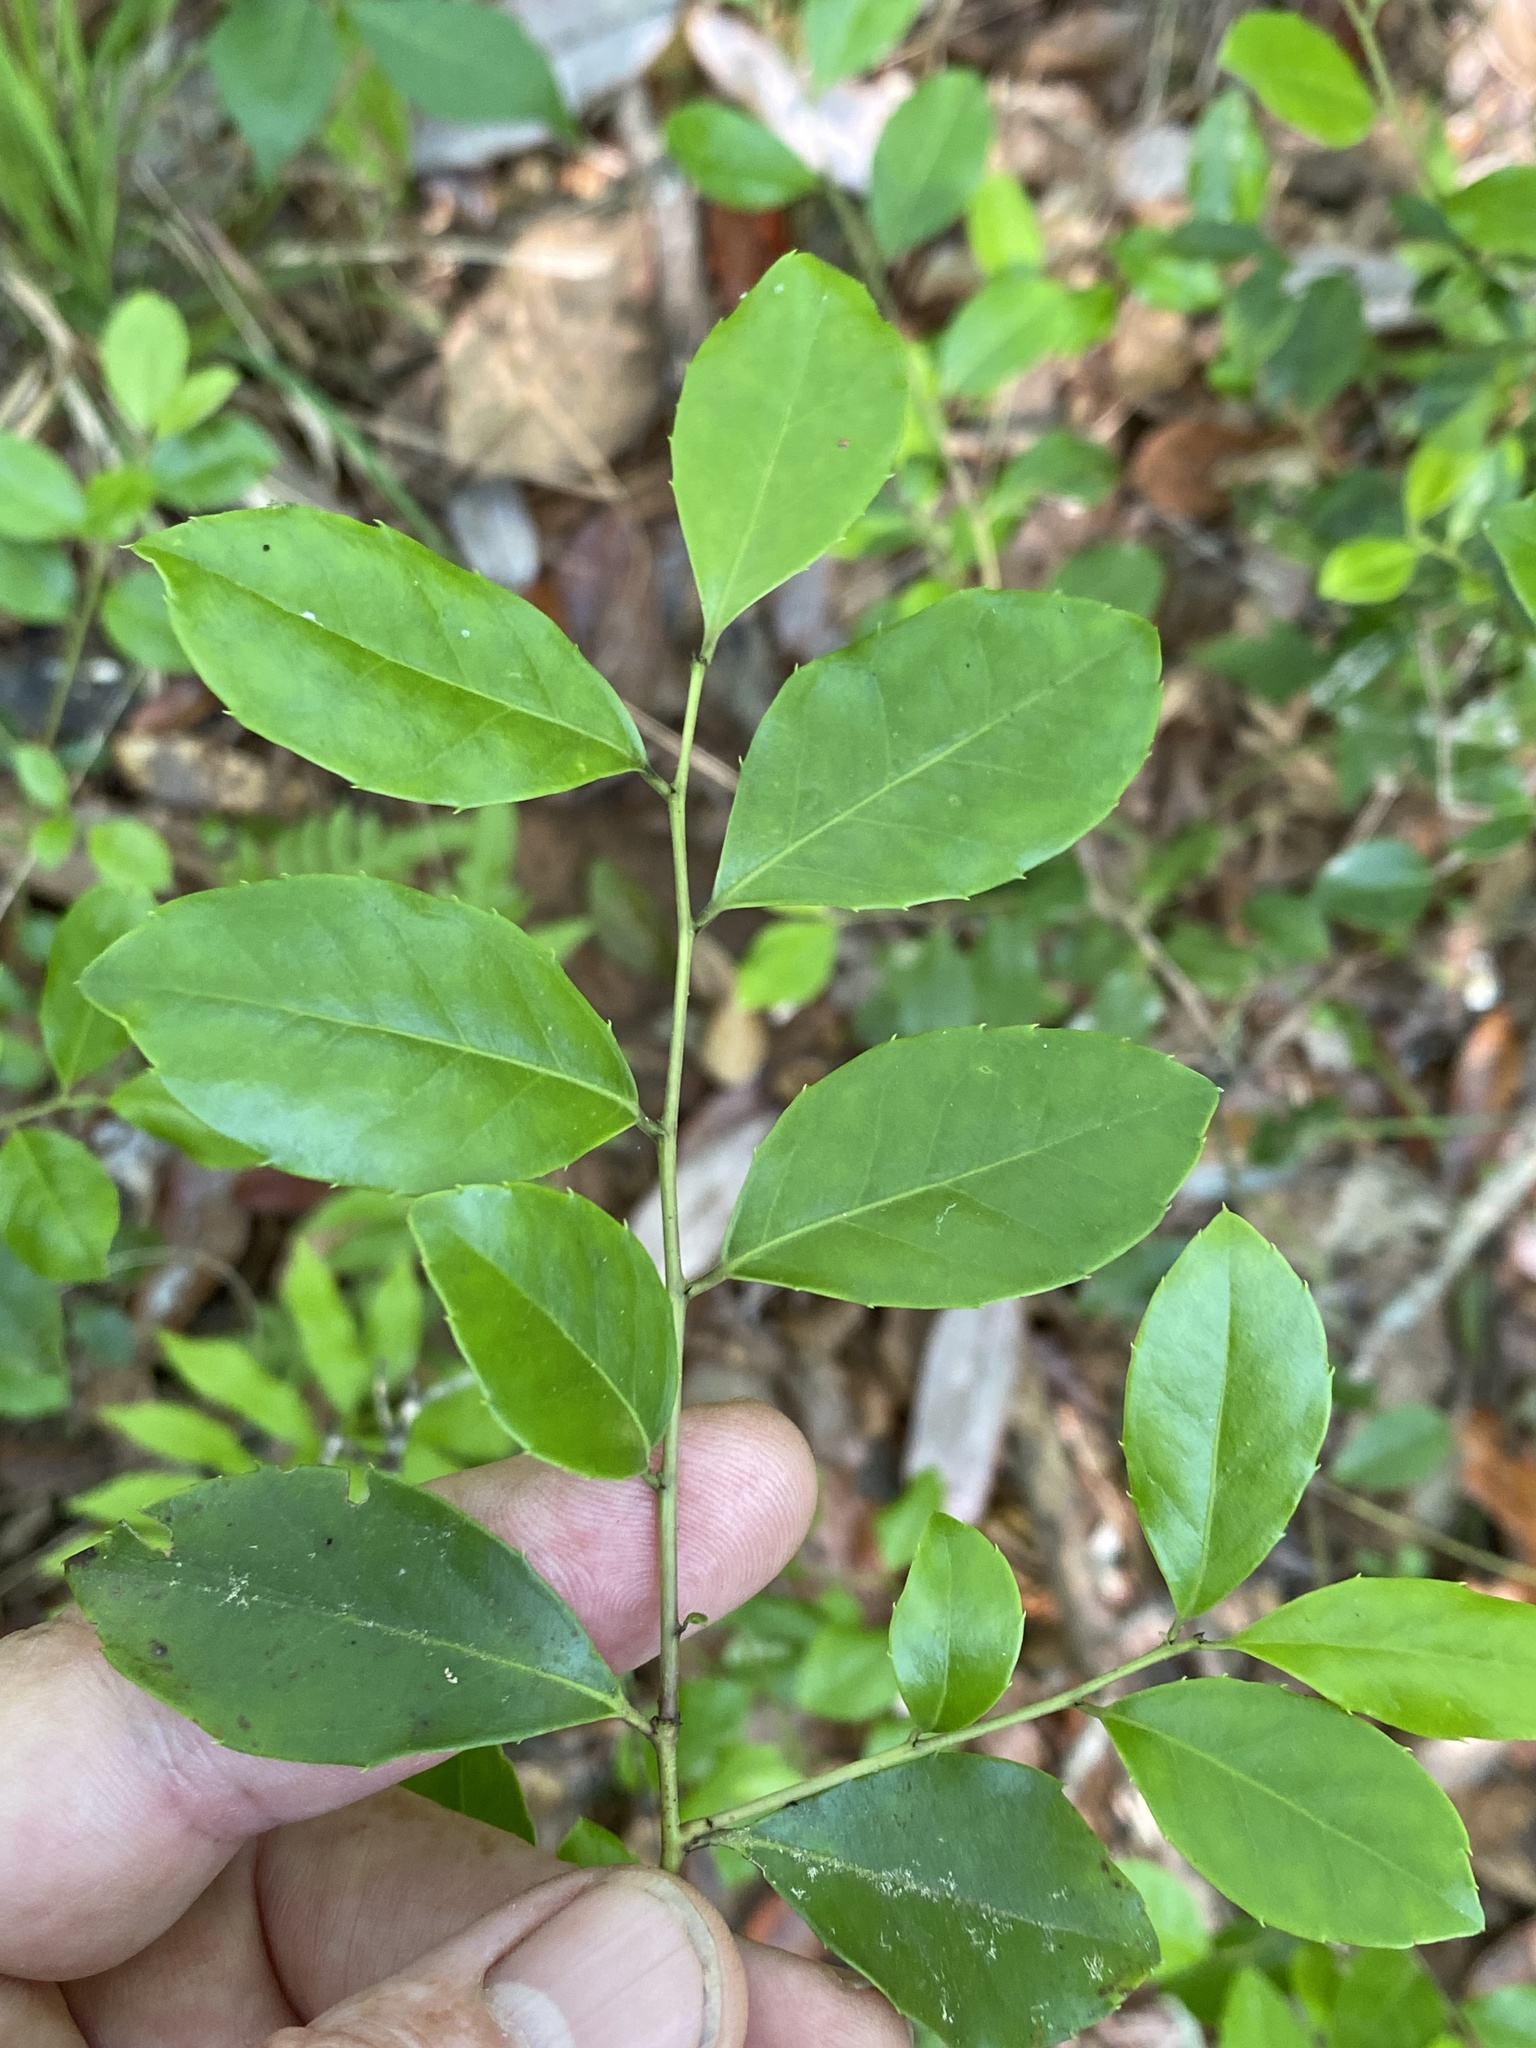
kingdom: Plantae
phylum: Tracheophyta
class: Magnoliopsida
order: Aquifoliales
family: Aquifoliaceae
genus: Ilex
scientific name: Ilex coriacea
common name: Sweet gallberry
